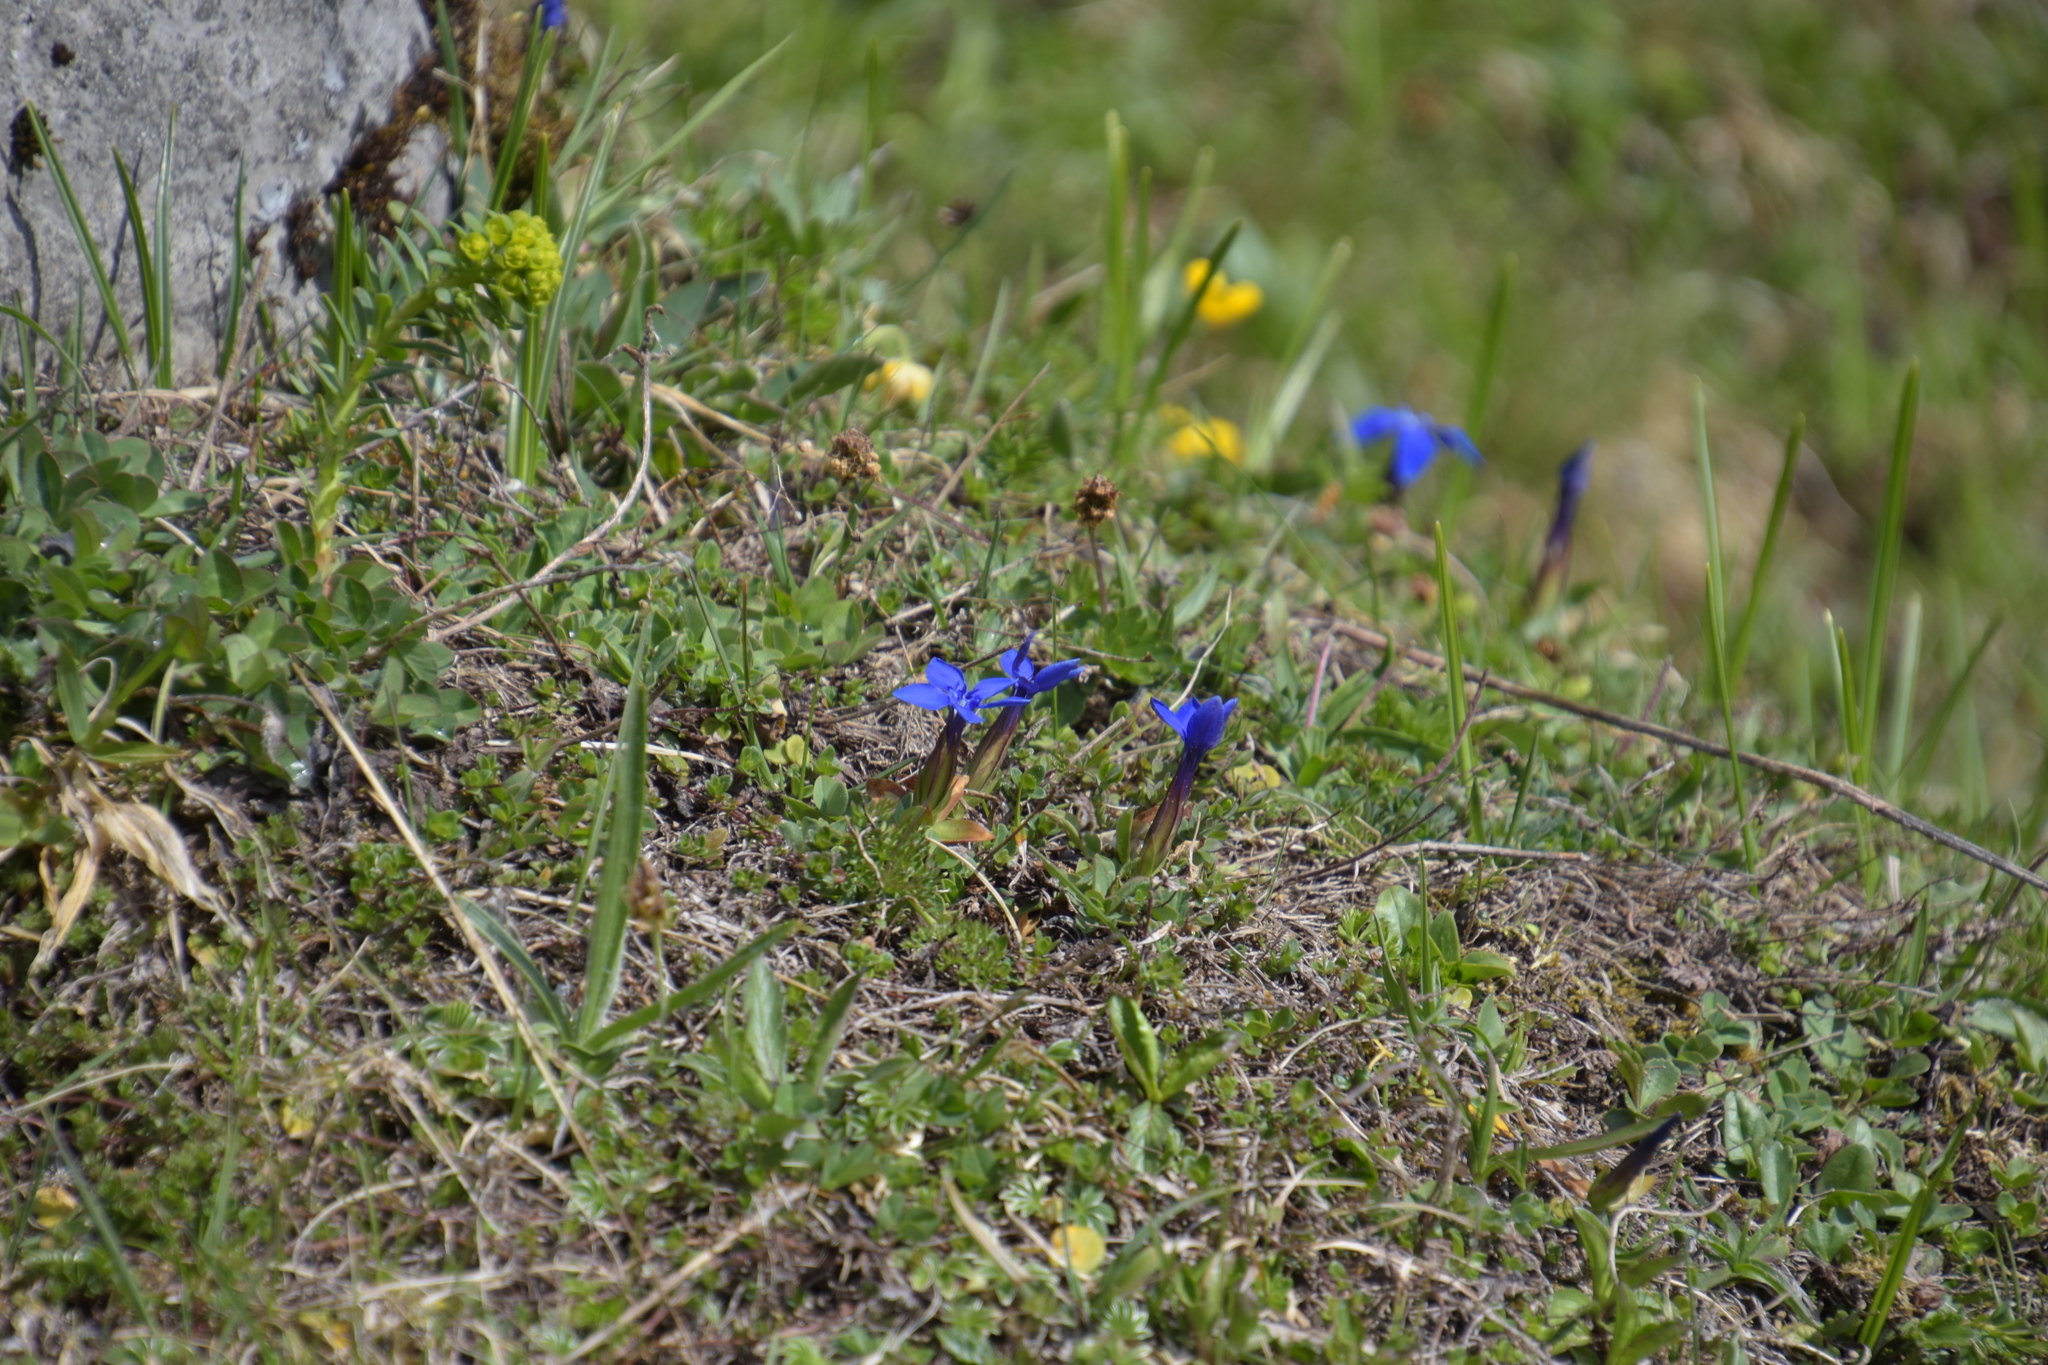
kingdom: Plantae
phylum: Tracheophyta
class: Magnoliopsida
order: Gentianales
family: Gentianaceae
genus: Gentiana
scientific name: Gentiana verna
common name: Spring gentian
